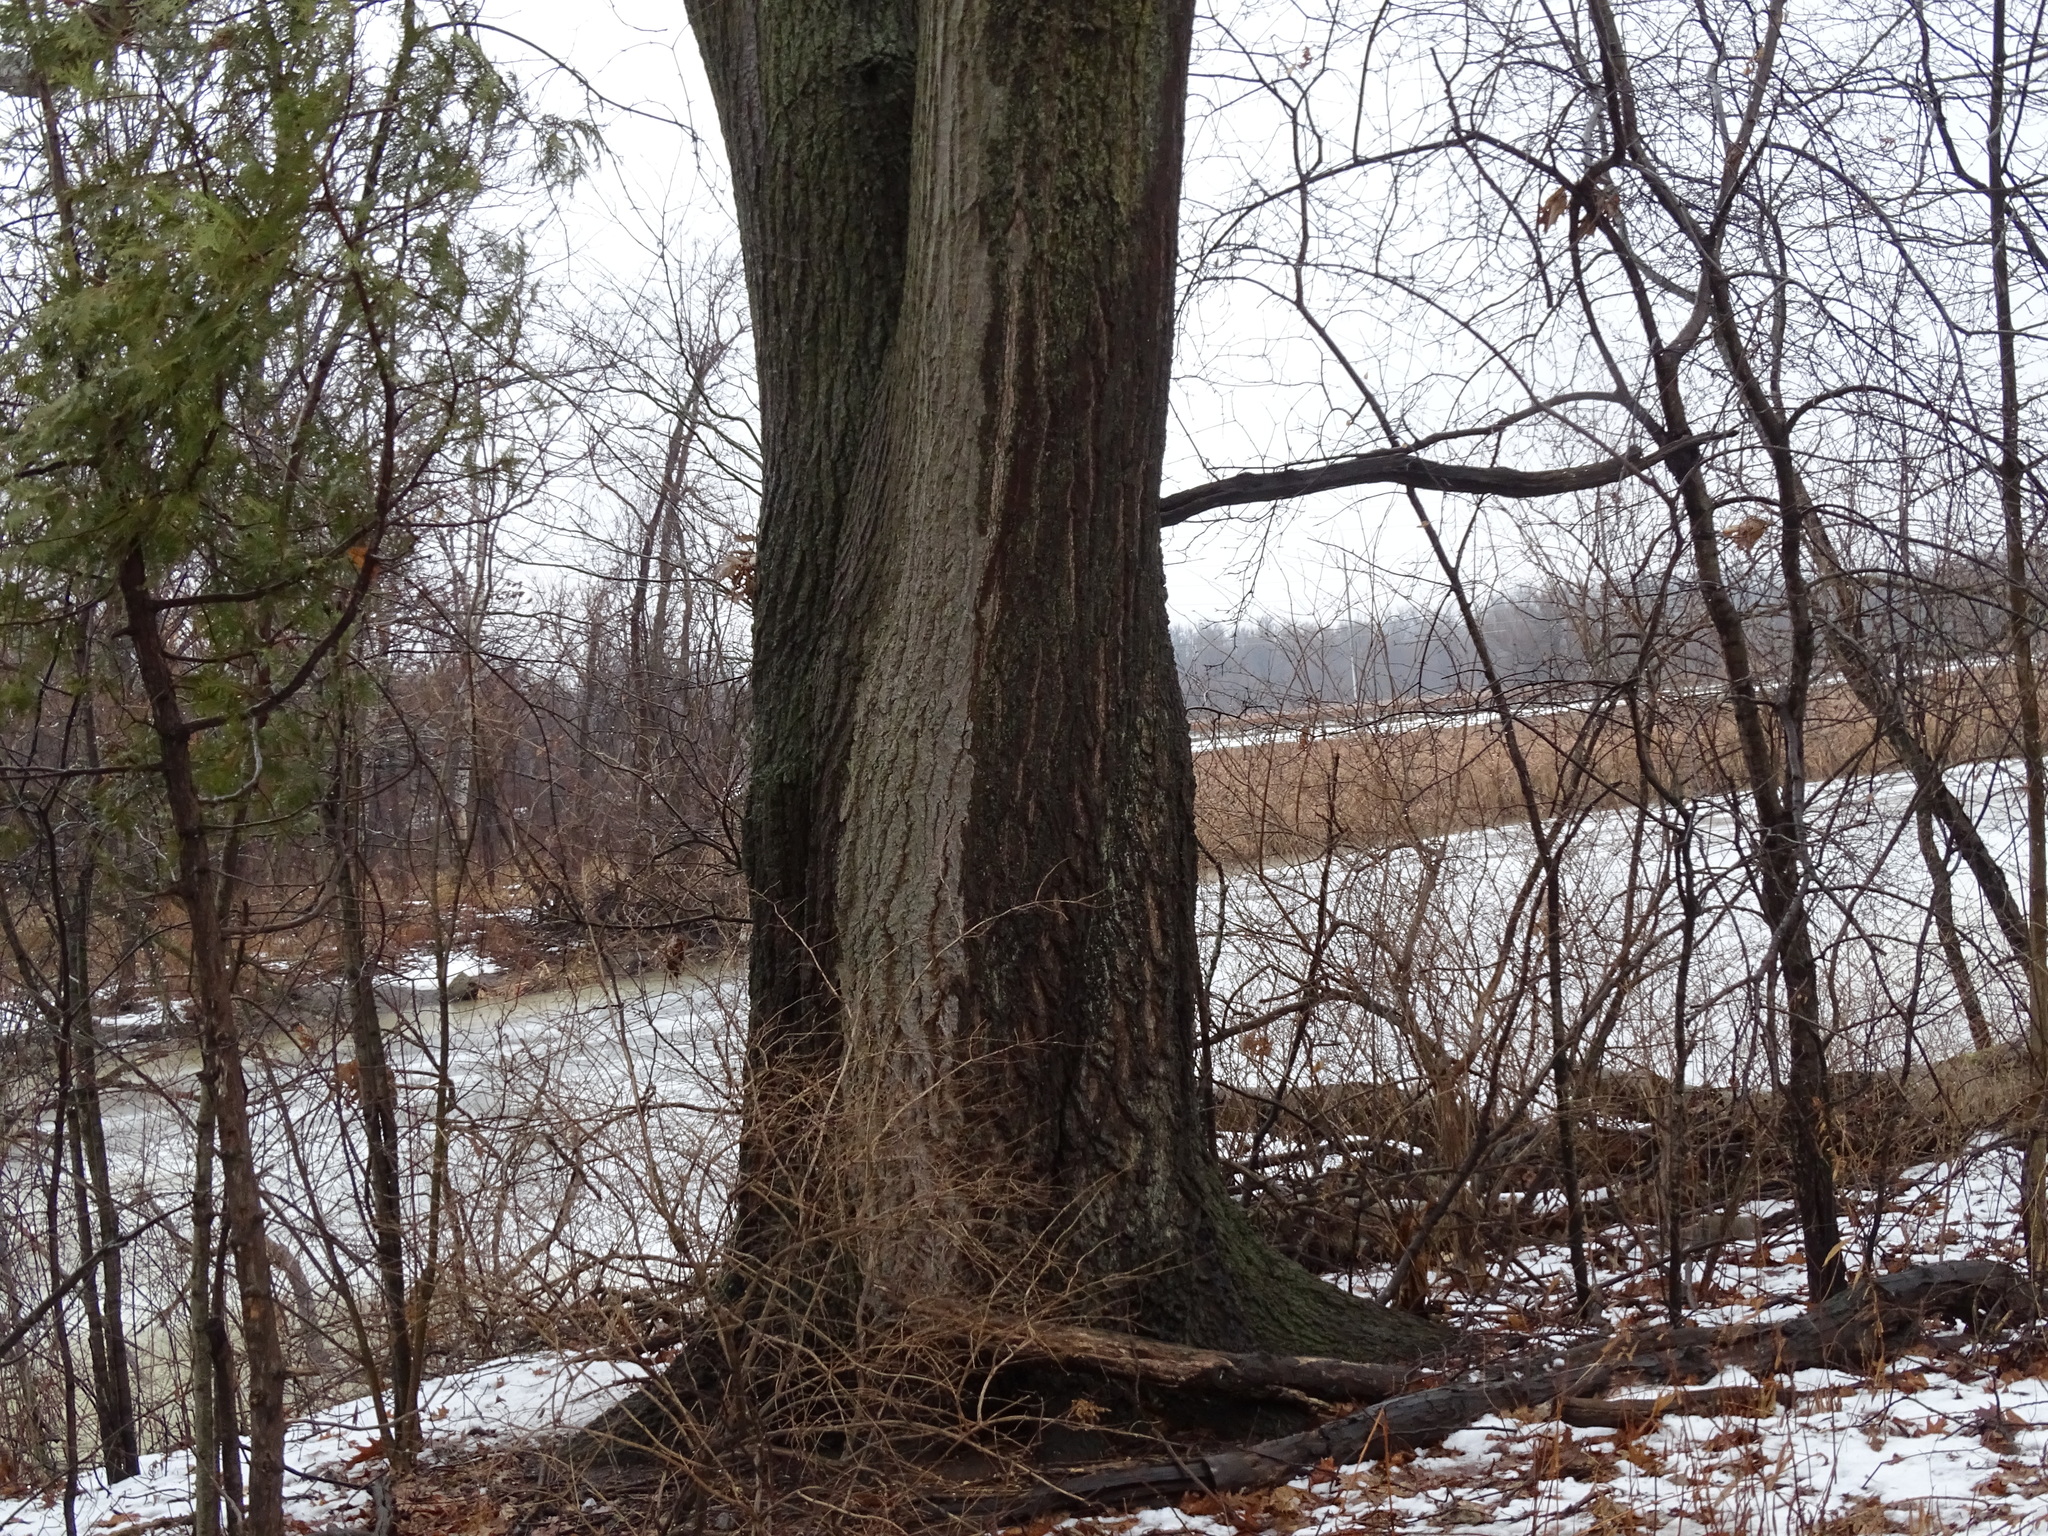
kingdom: Plantae
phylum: Tracheophyta
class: Magnoliopsida
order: Fagales
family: Fagaceae
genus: Quercus
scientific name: Quercus rubra
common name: Red oak
